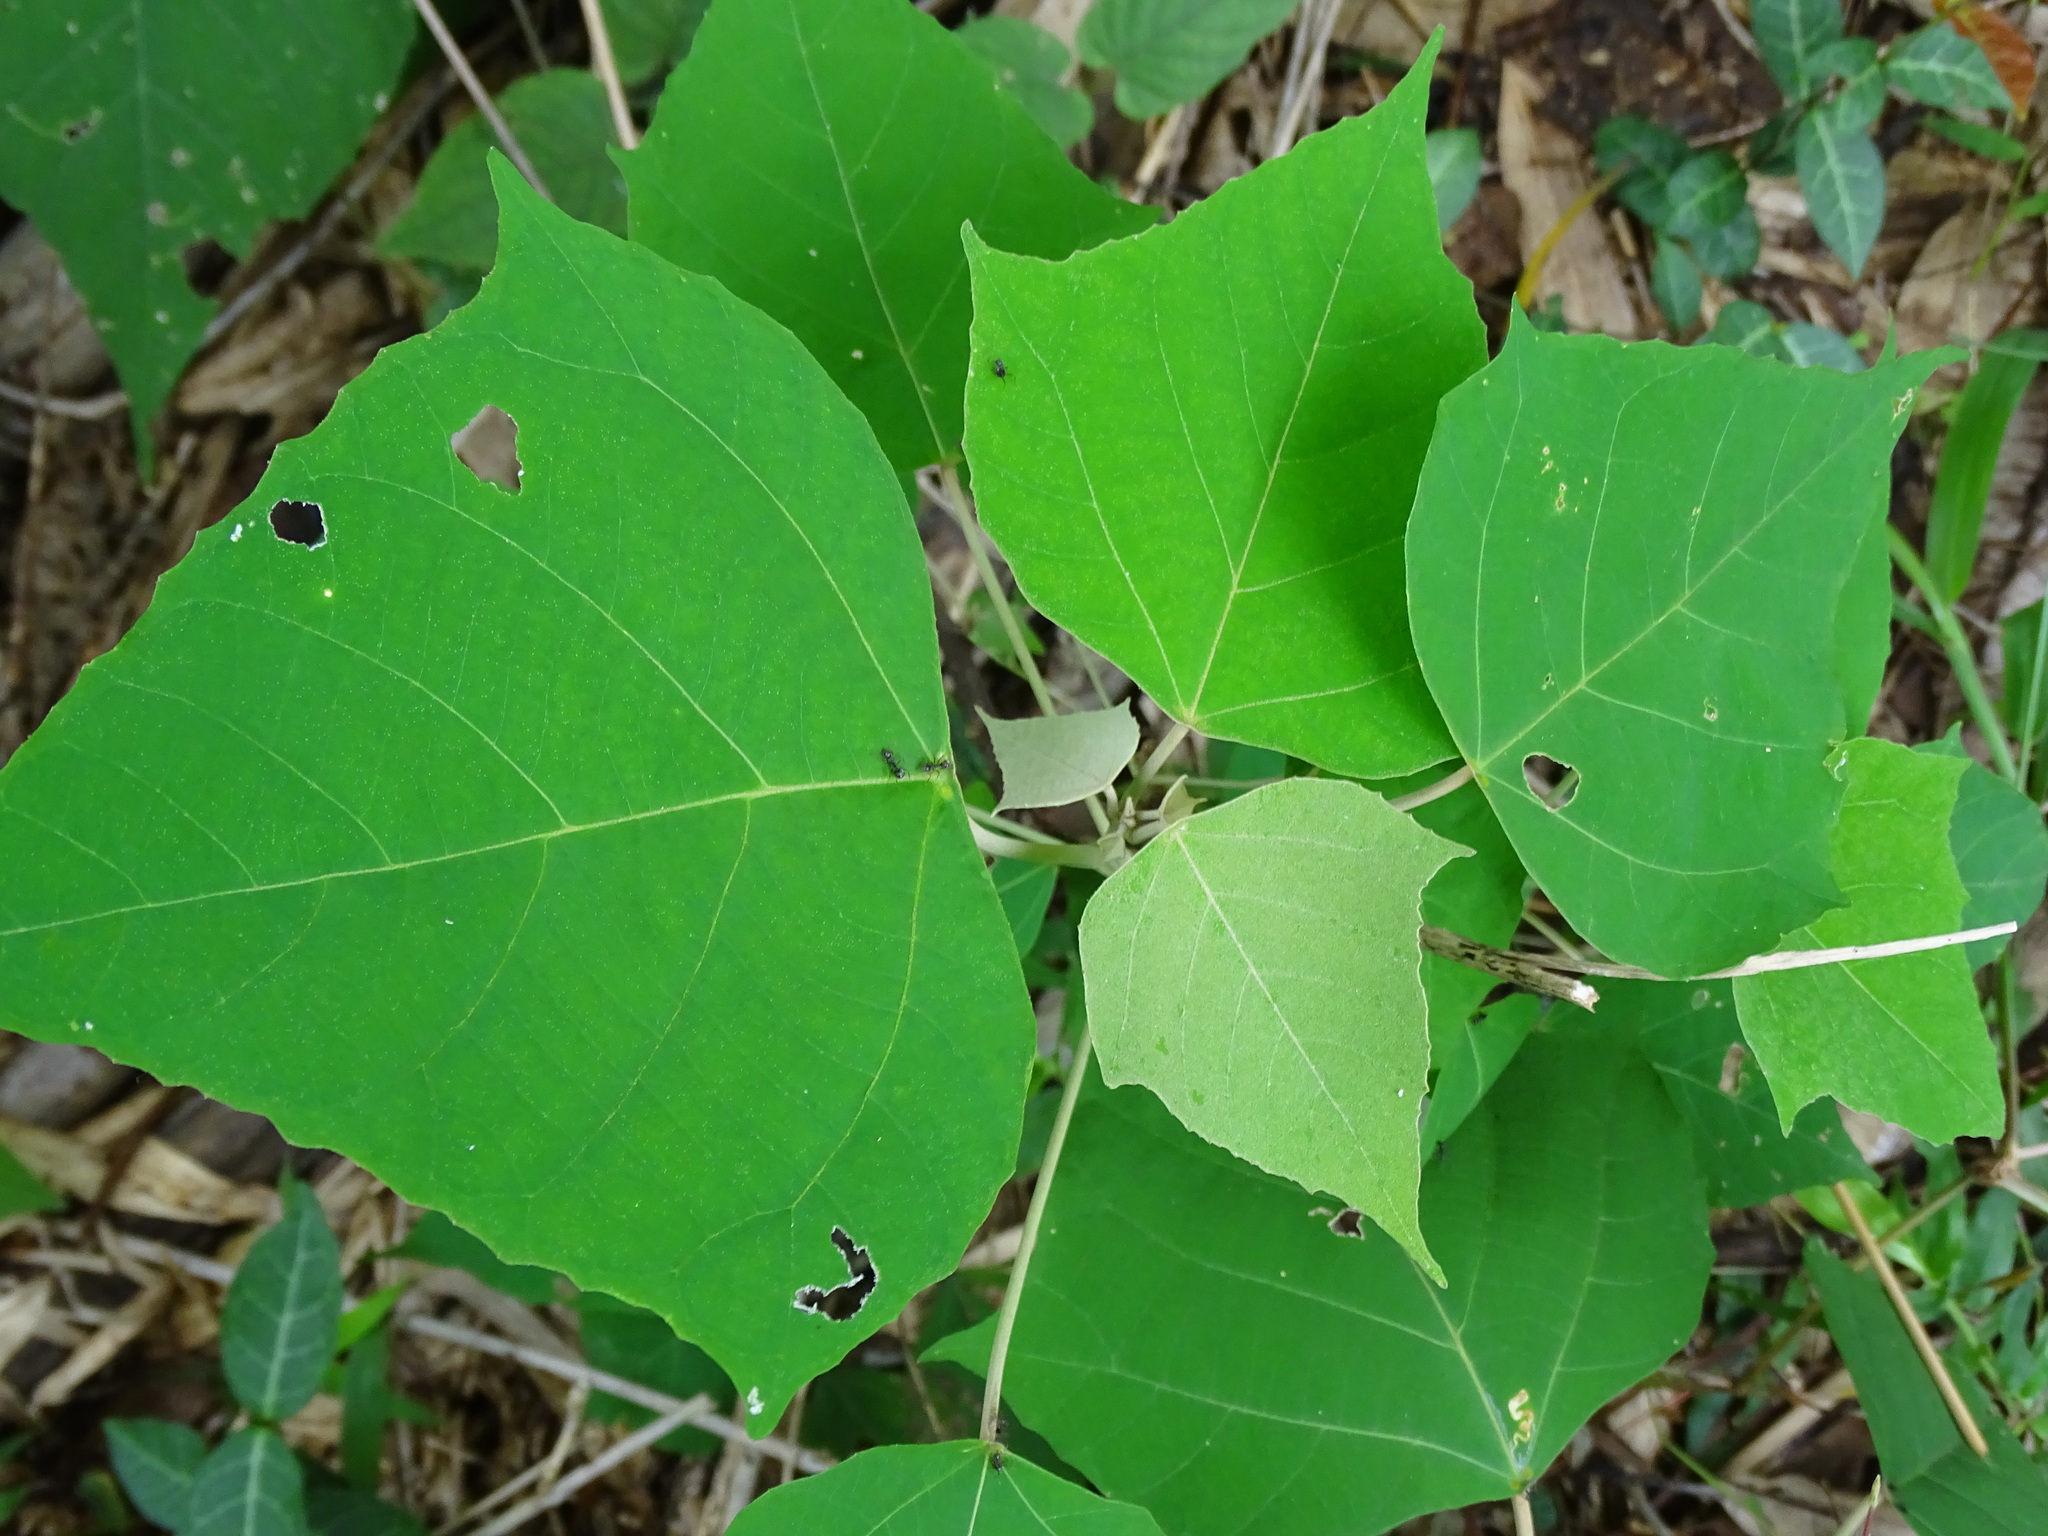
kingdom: Plantae
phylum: Tracheophyta
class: Magnoliopsida
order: Malpighiales
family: Euphorbiaceae
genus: Mallotus
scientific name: Mallotus paniculatus
